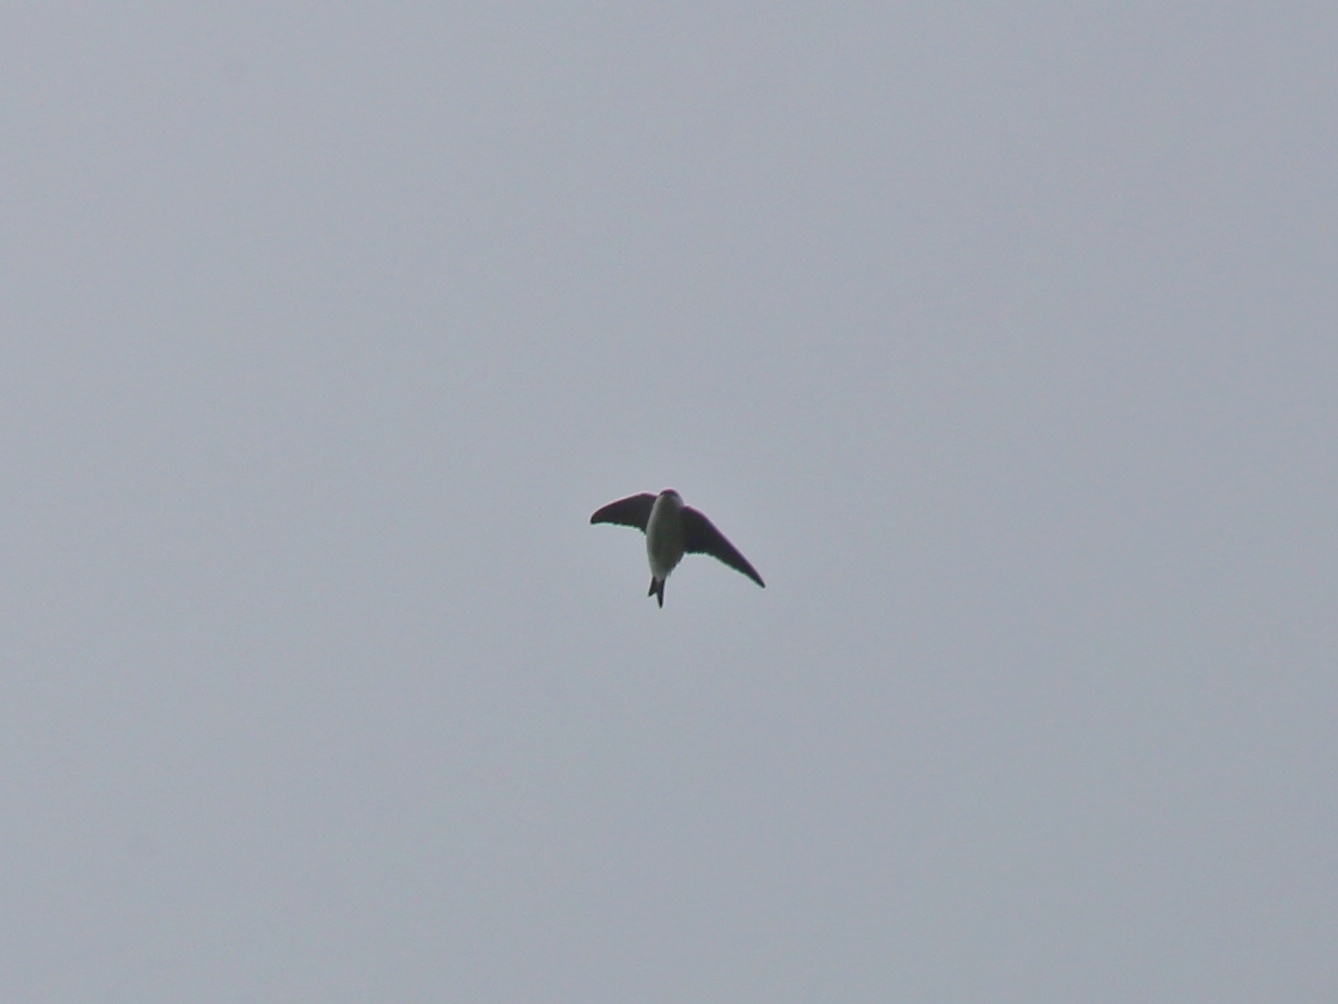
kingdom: Animalia
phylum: Chordata
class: Aves
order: Passeriformes
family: Hirundinidae
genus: Delichon
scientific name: Delichon urbicum
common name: Common house martin
